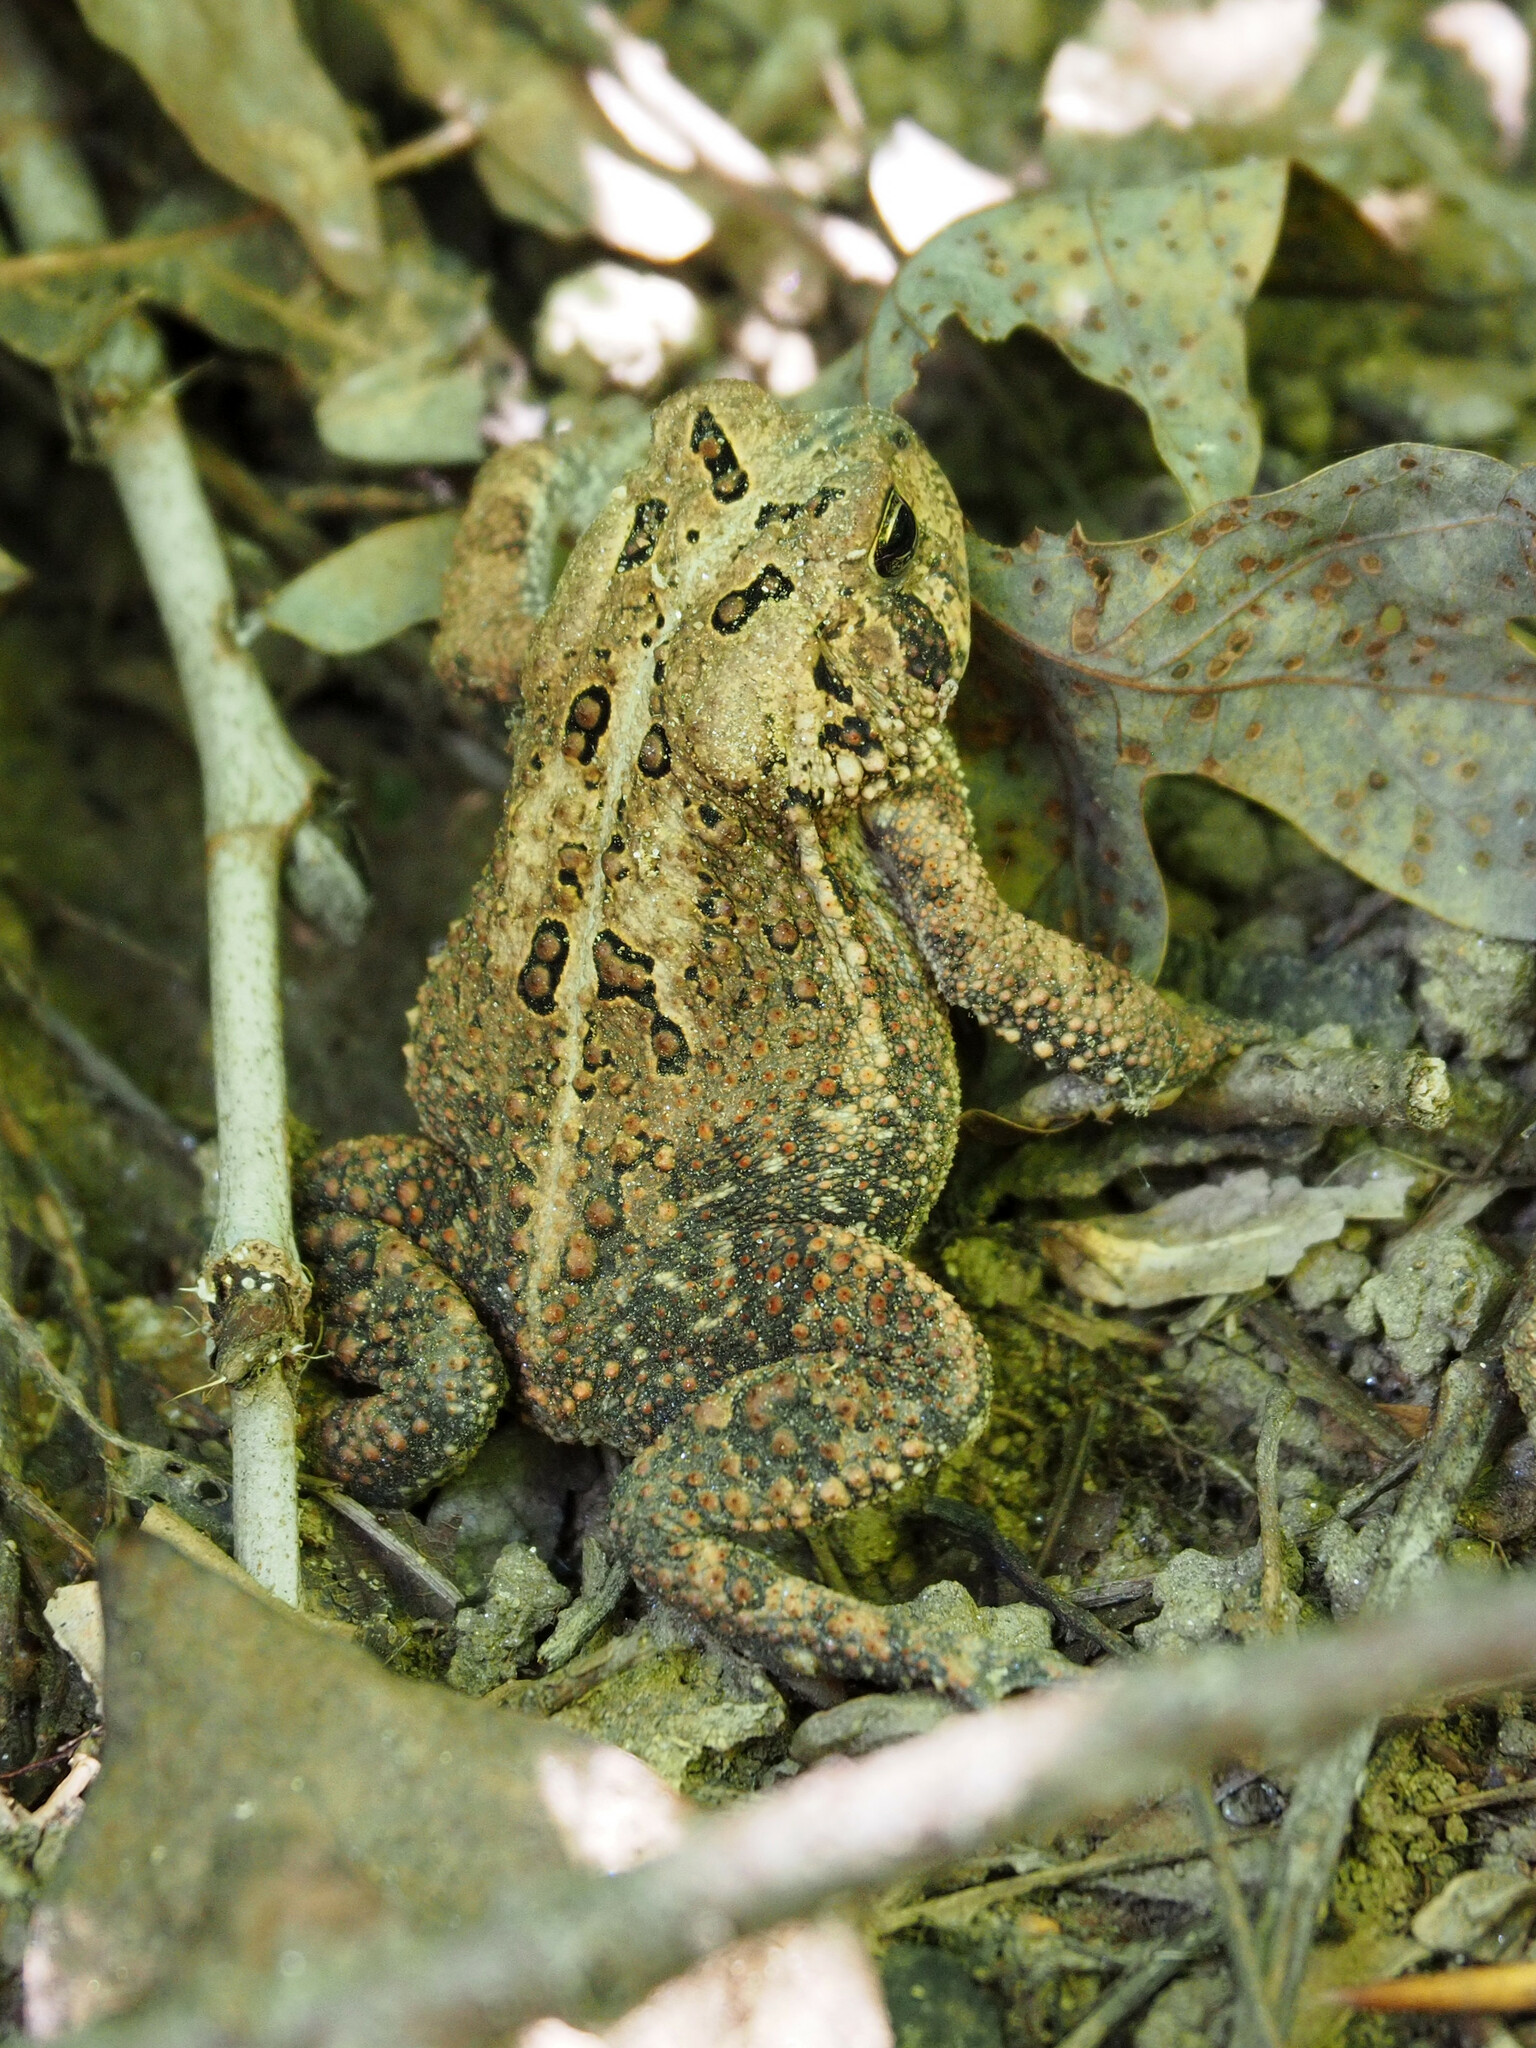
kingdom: Animalia
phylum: Chordata
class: Amphibia
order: Anura
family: Bufonidae
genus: Anaxyrus
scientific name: Anaxyrus americanus
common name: American toad
